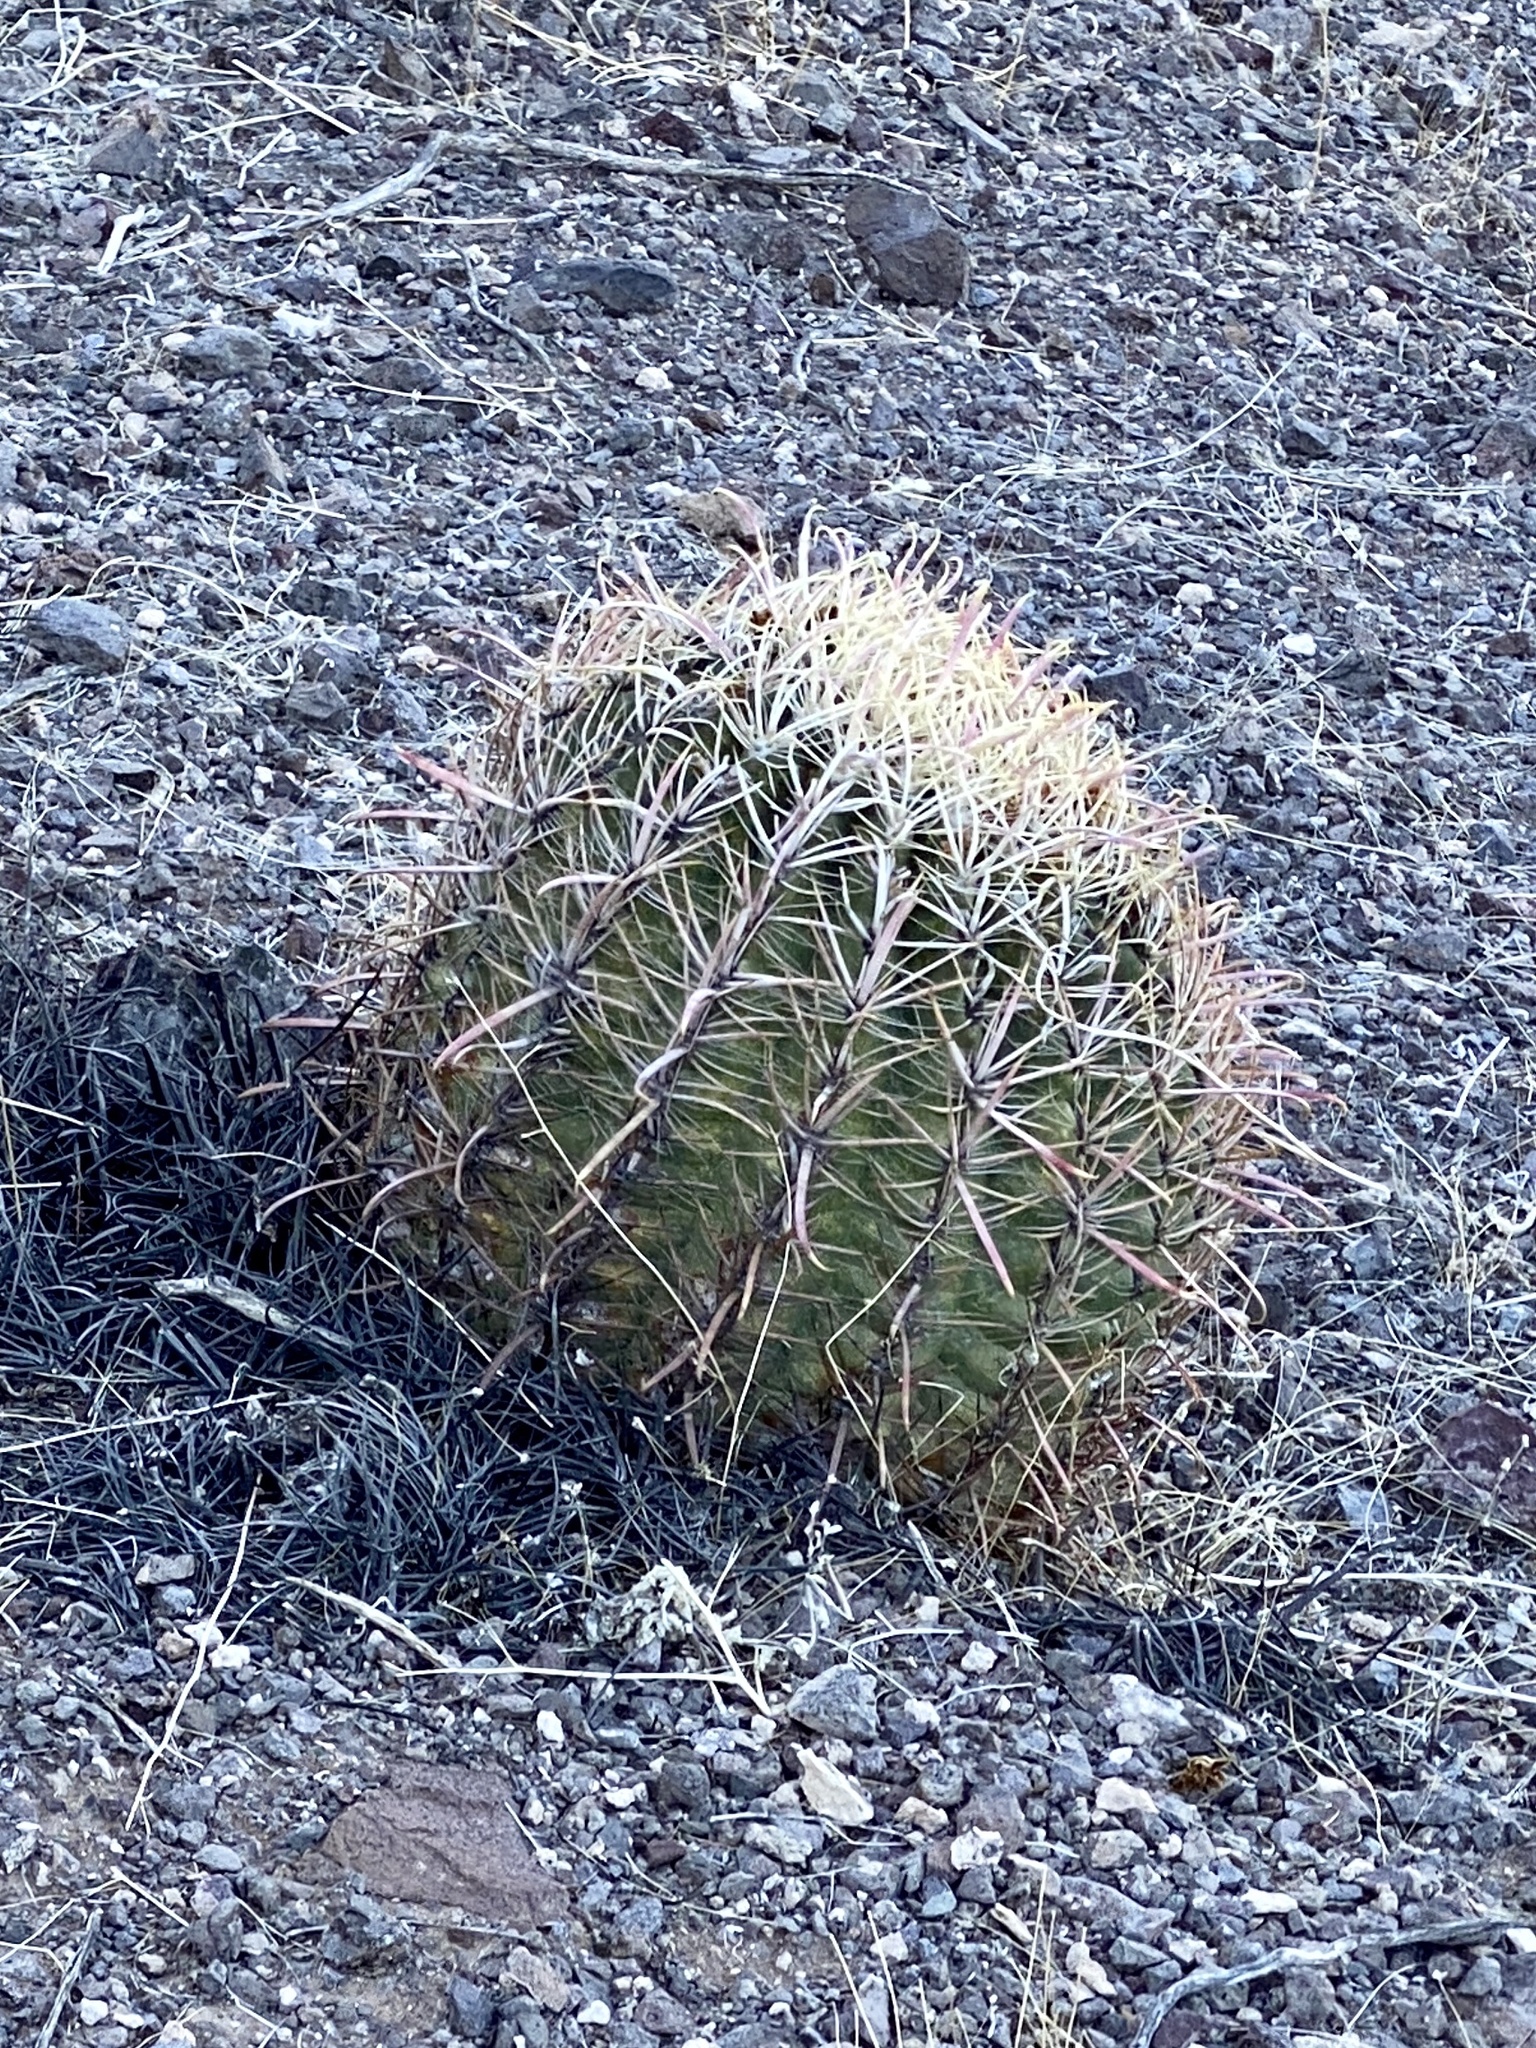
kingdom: Plantae
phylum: Tracheophyta
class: Magnoliopsida
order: Caryophyllales
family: Cactaceae
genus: Ferocactus
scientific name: Ferocactus cylindraceus
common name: California barrel cactus
